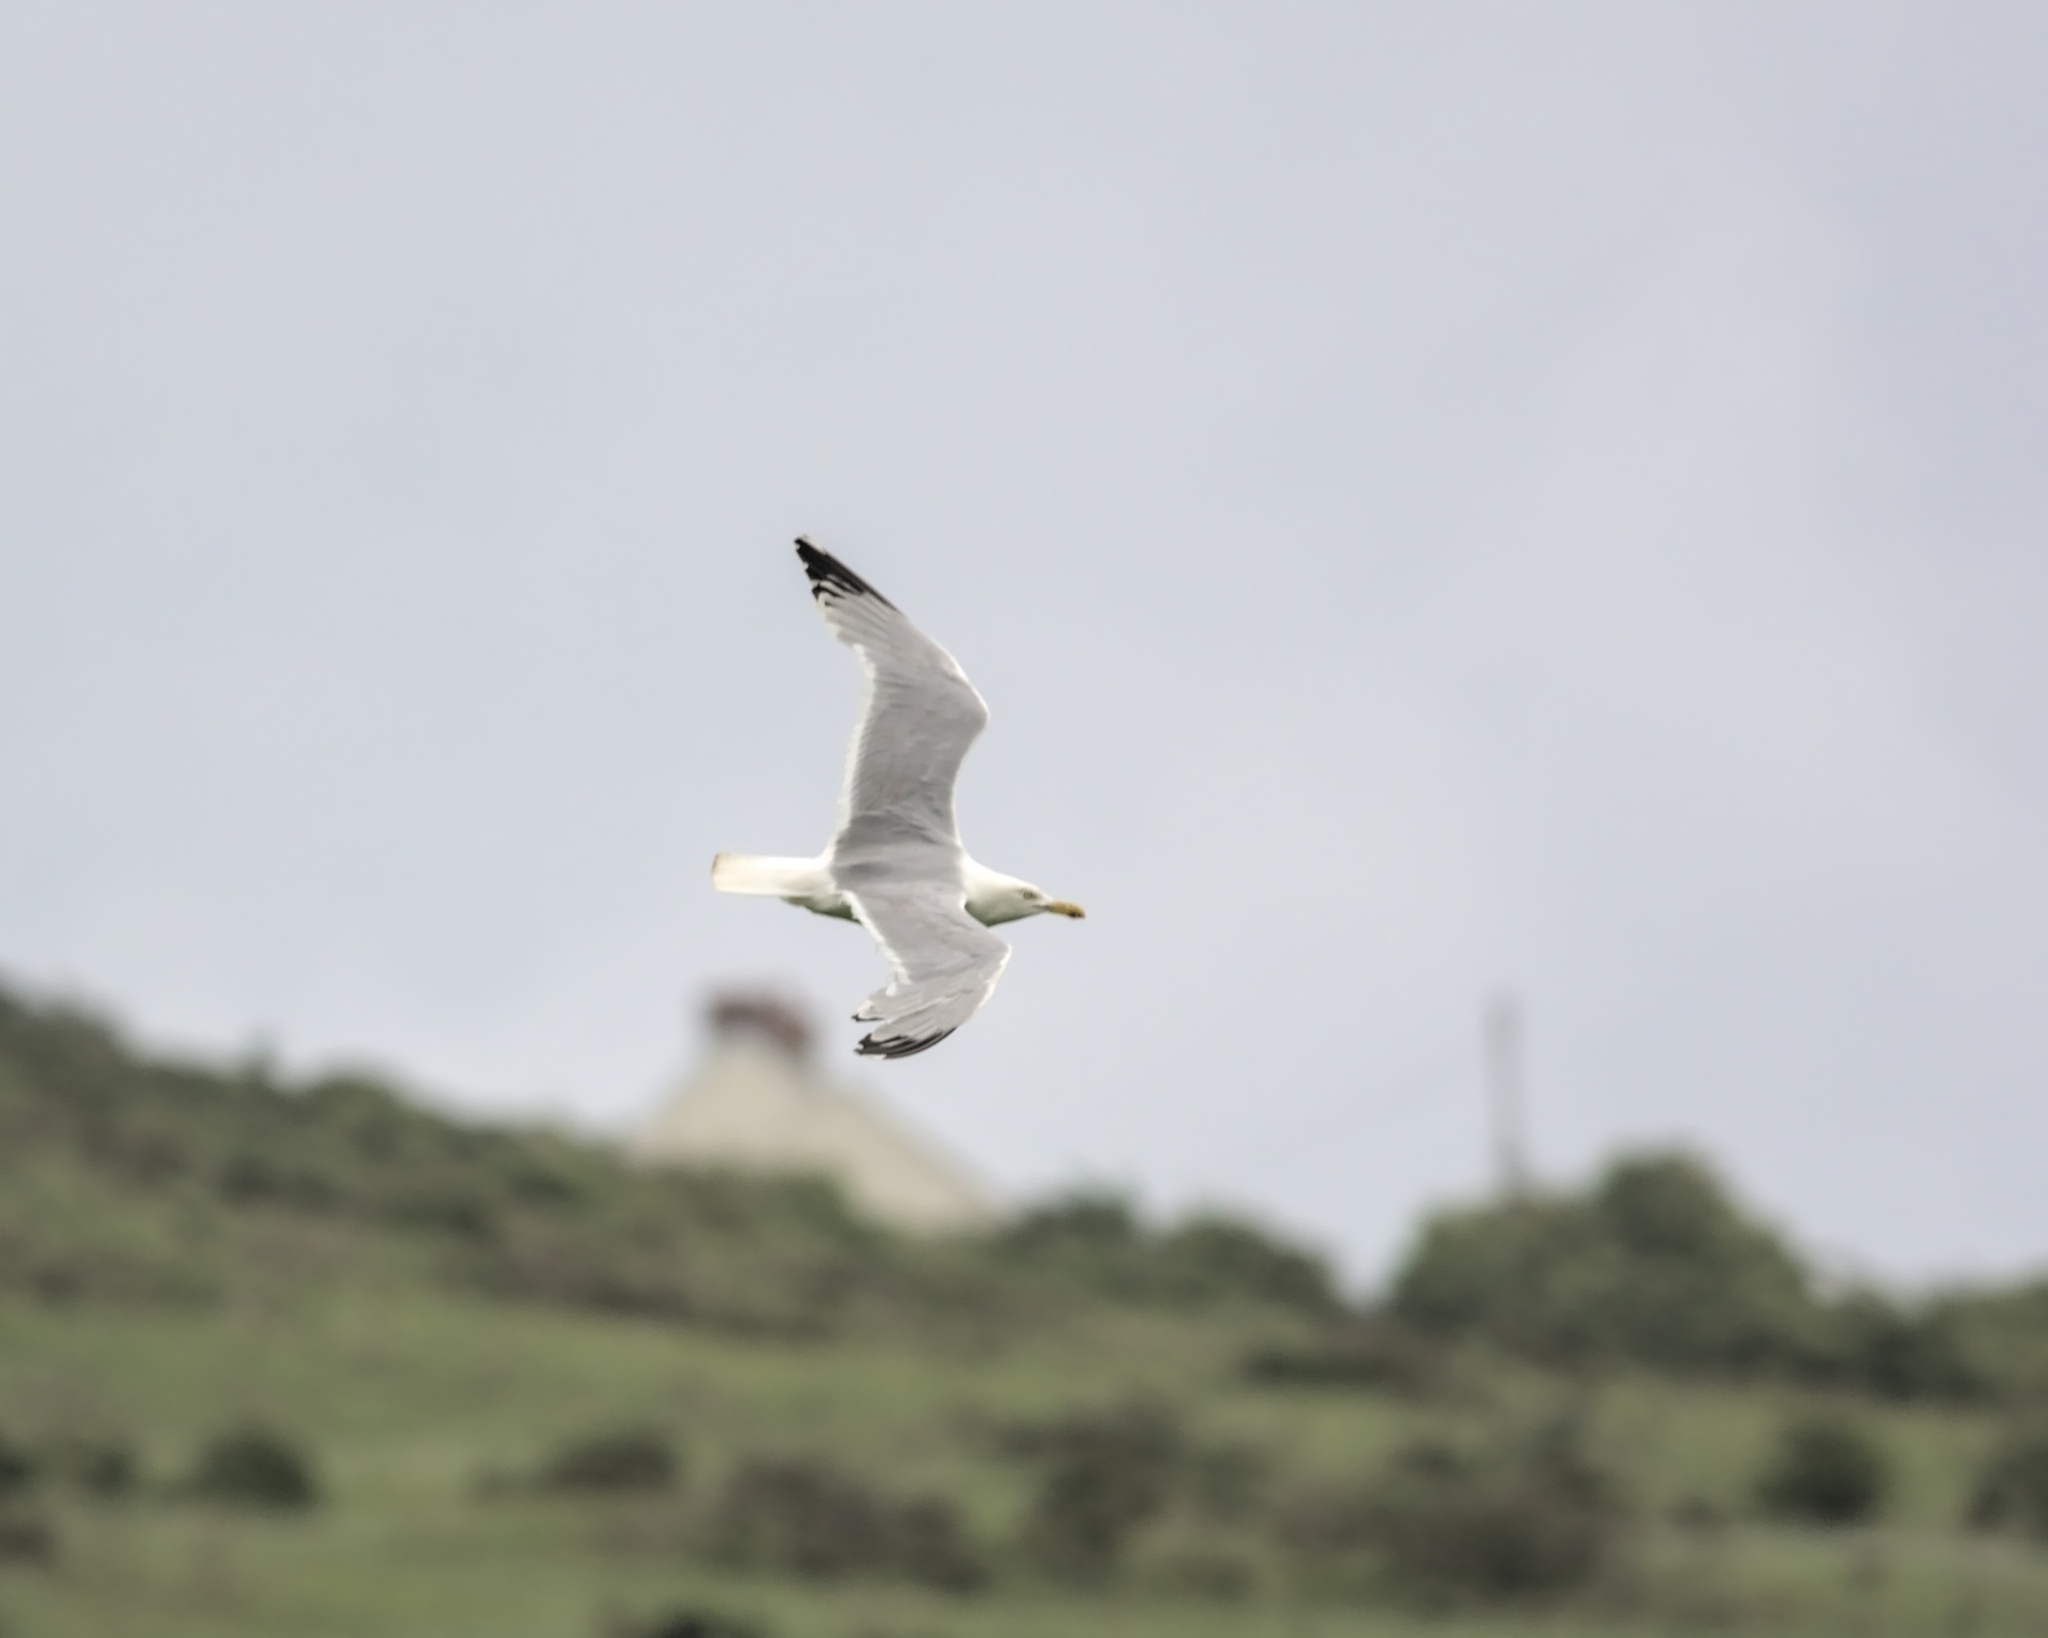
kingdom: Animalia
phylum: Chordata
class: Aves
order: Charadriiformes
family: Laridae
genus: Larus
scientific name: Larus argentatus
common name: Herring gull
